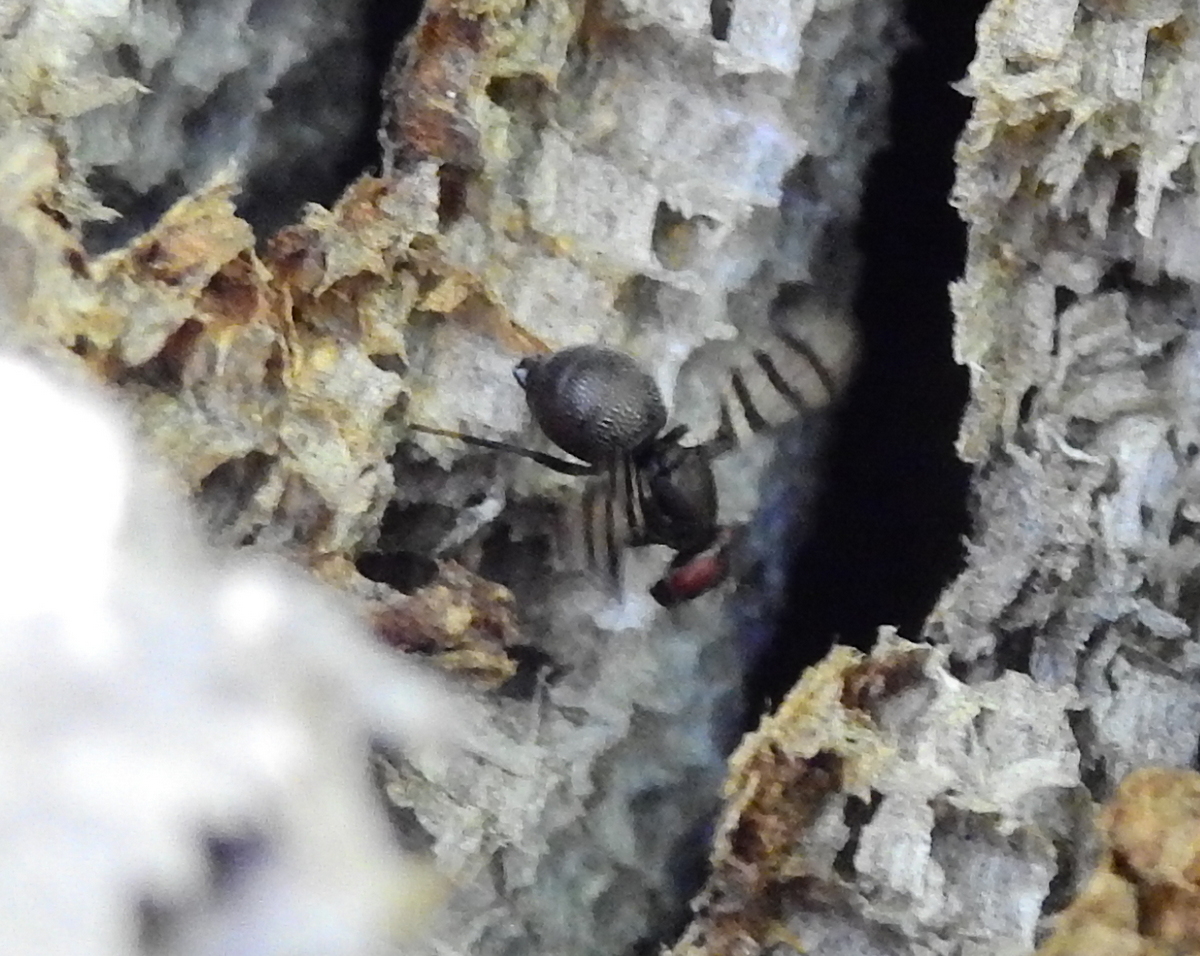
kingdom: Animalia
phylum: Arthropoda
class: Insecta
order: Diptera
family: Ulidiidae
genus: Pterotaenia
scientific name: Pterotaenia rivelloides
